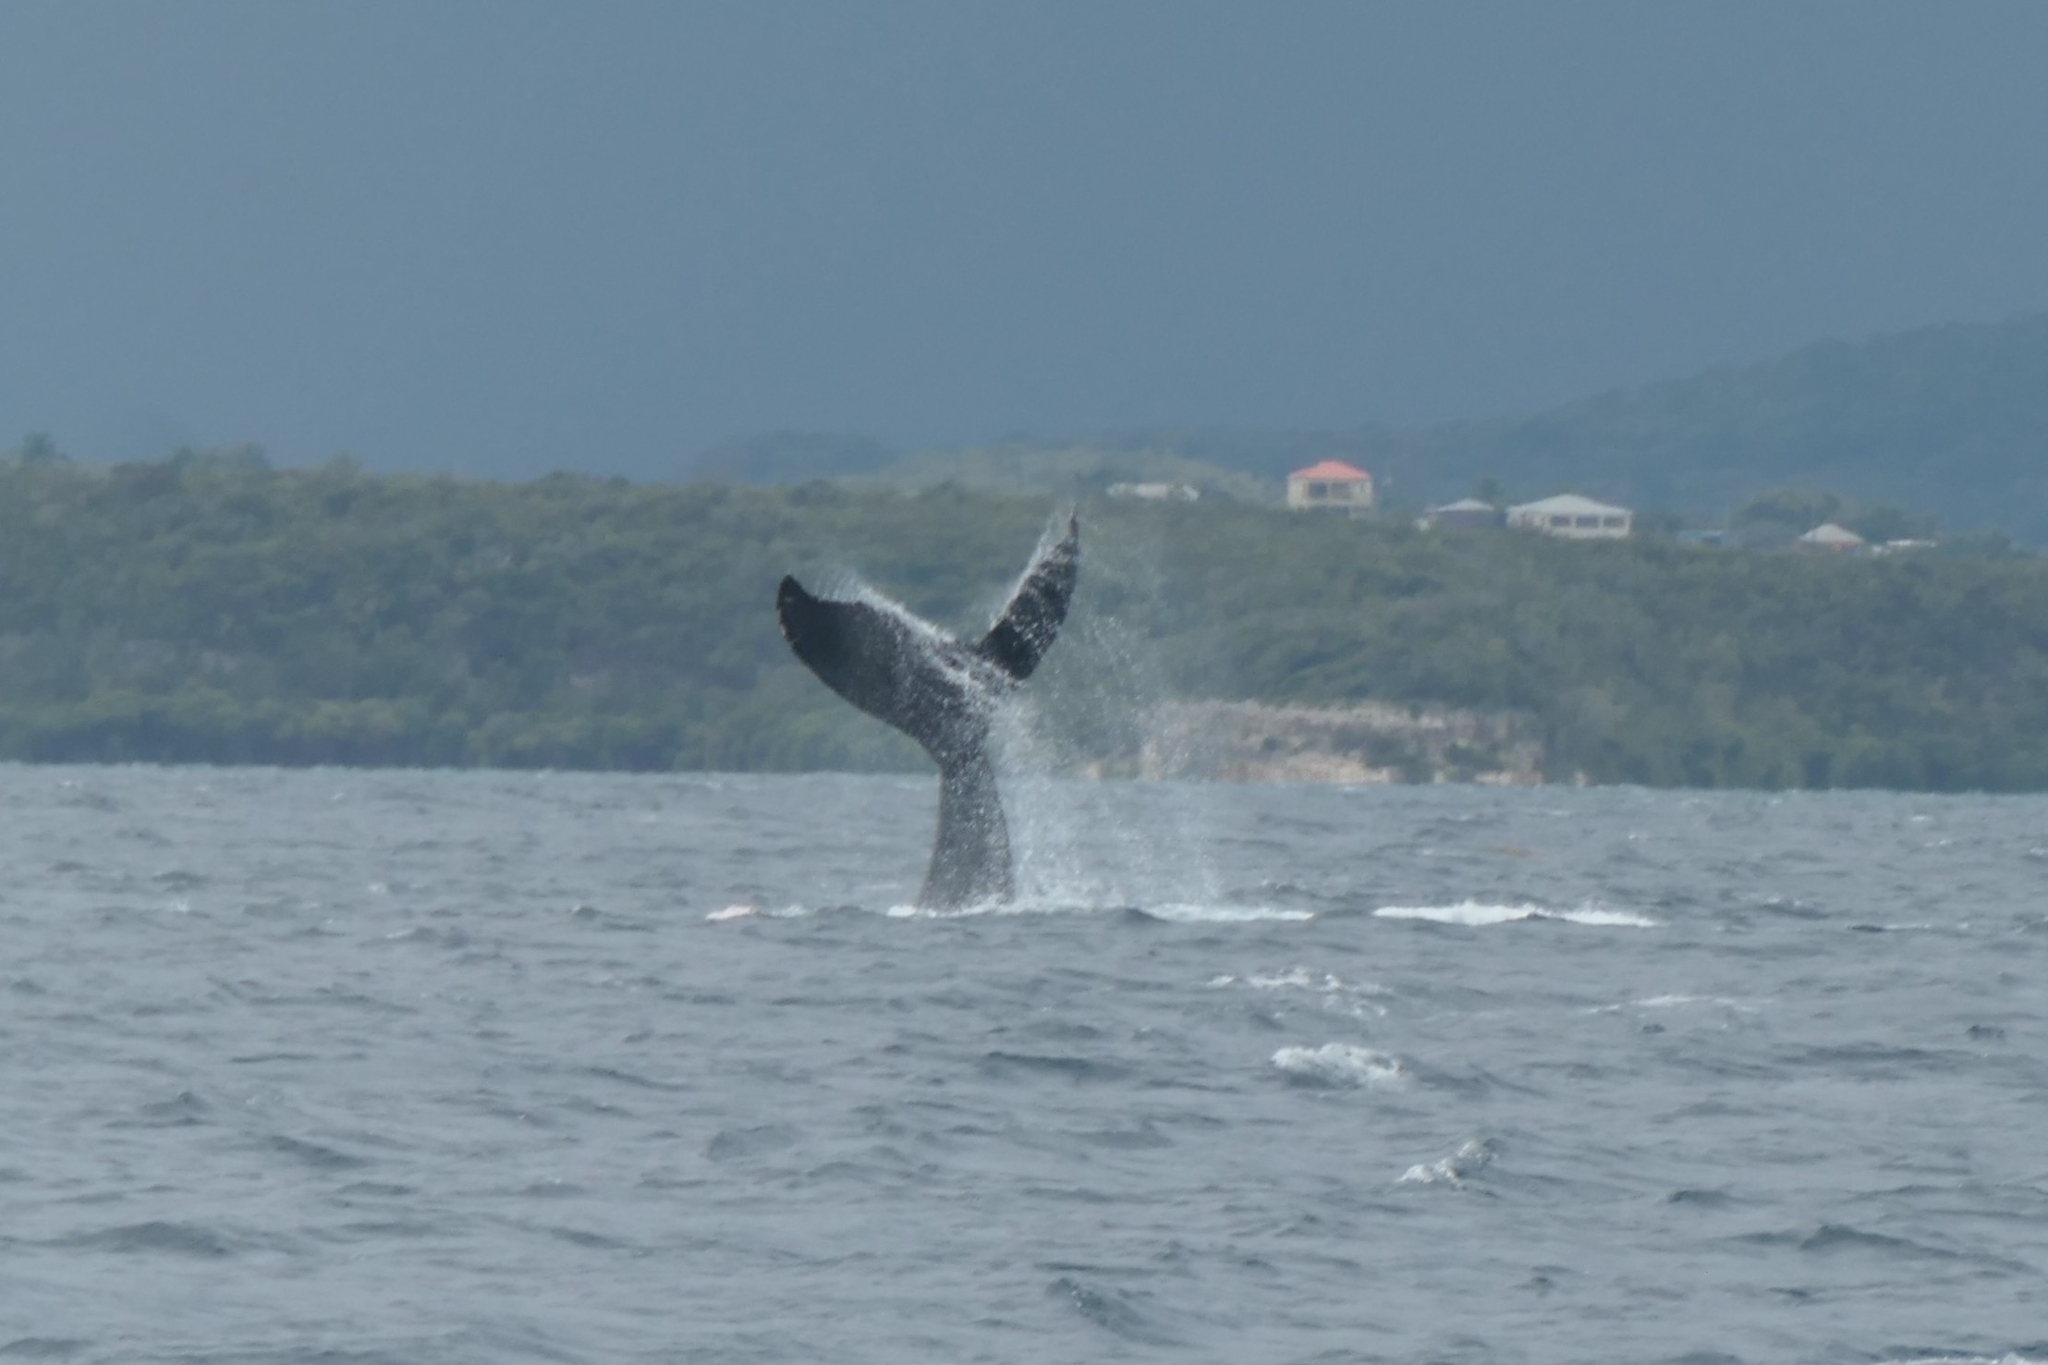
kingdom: Animalia
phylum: Chordata
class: Mammalia
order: Cetacea
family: Balaenopteridae
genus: Megaptera
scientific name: Megaptera novaeangliae
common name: Humpback whale
